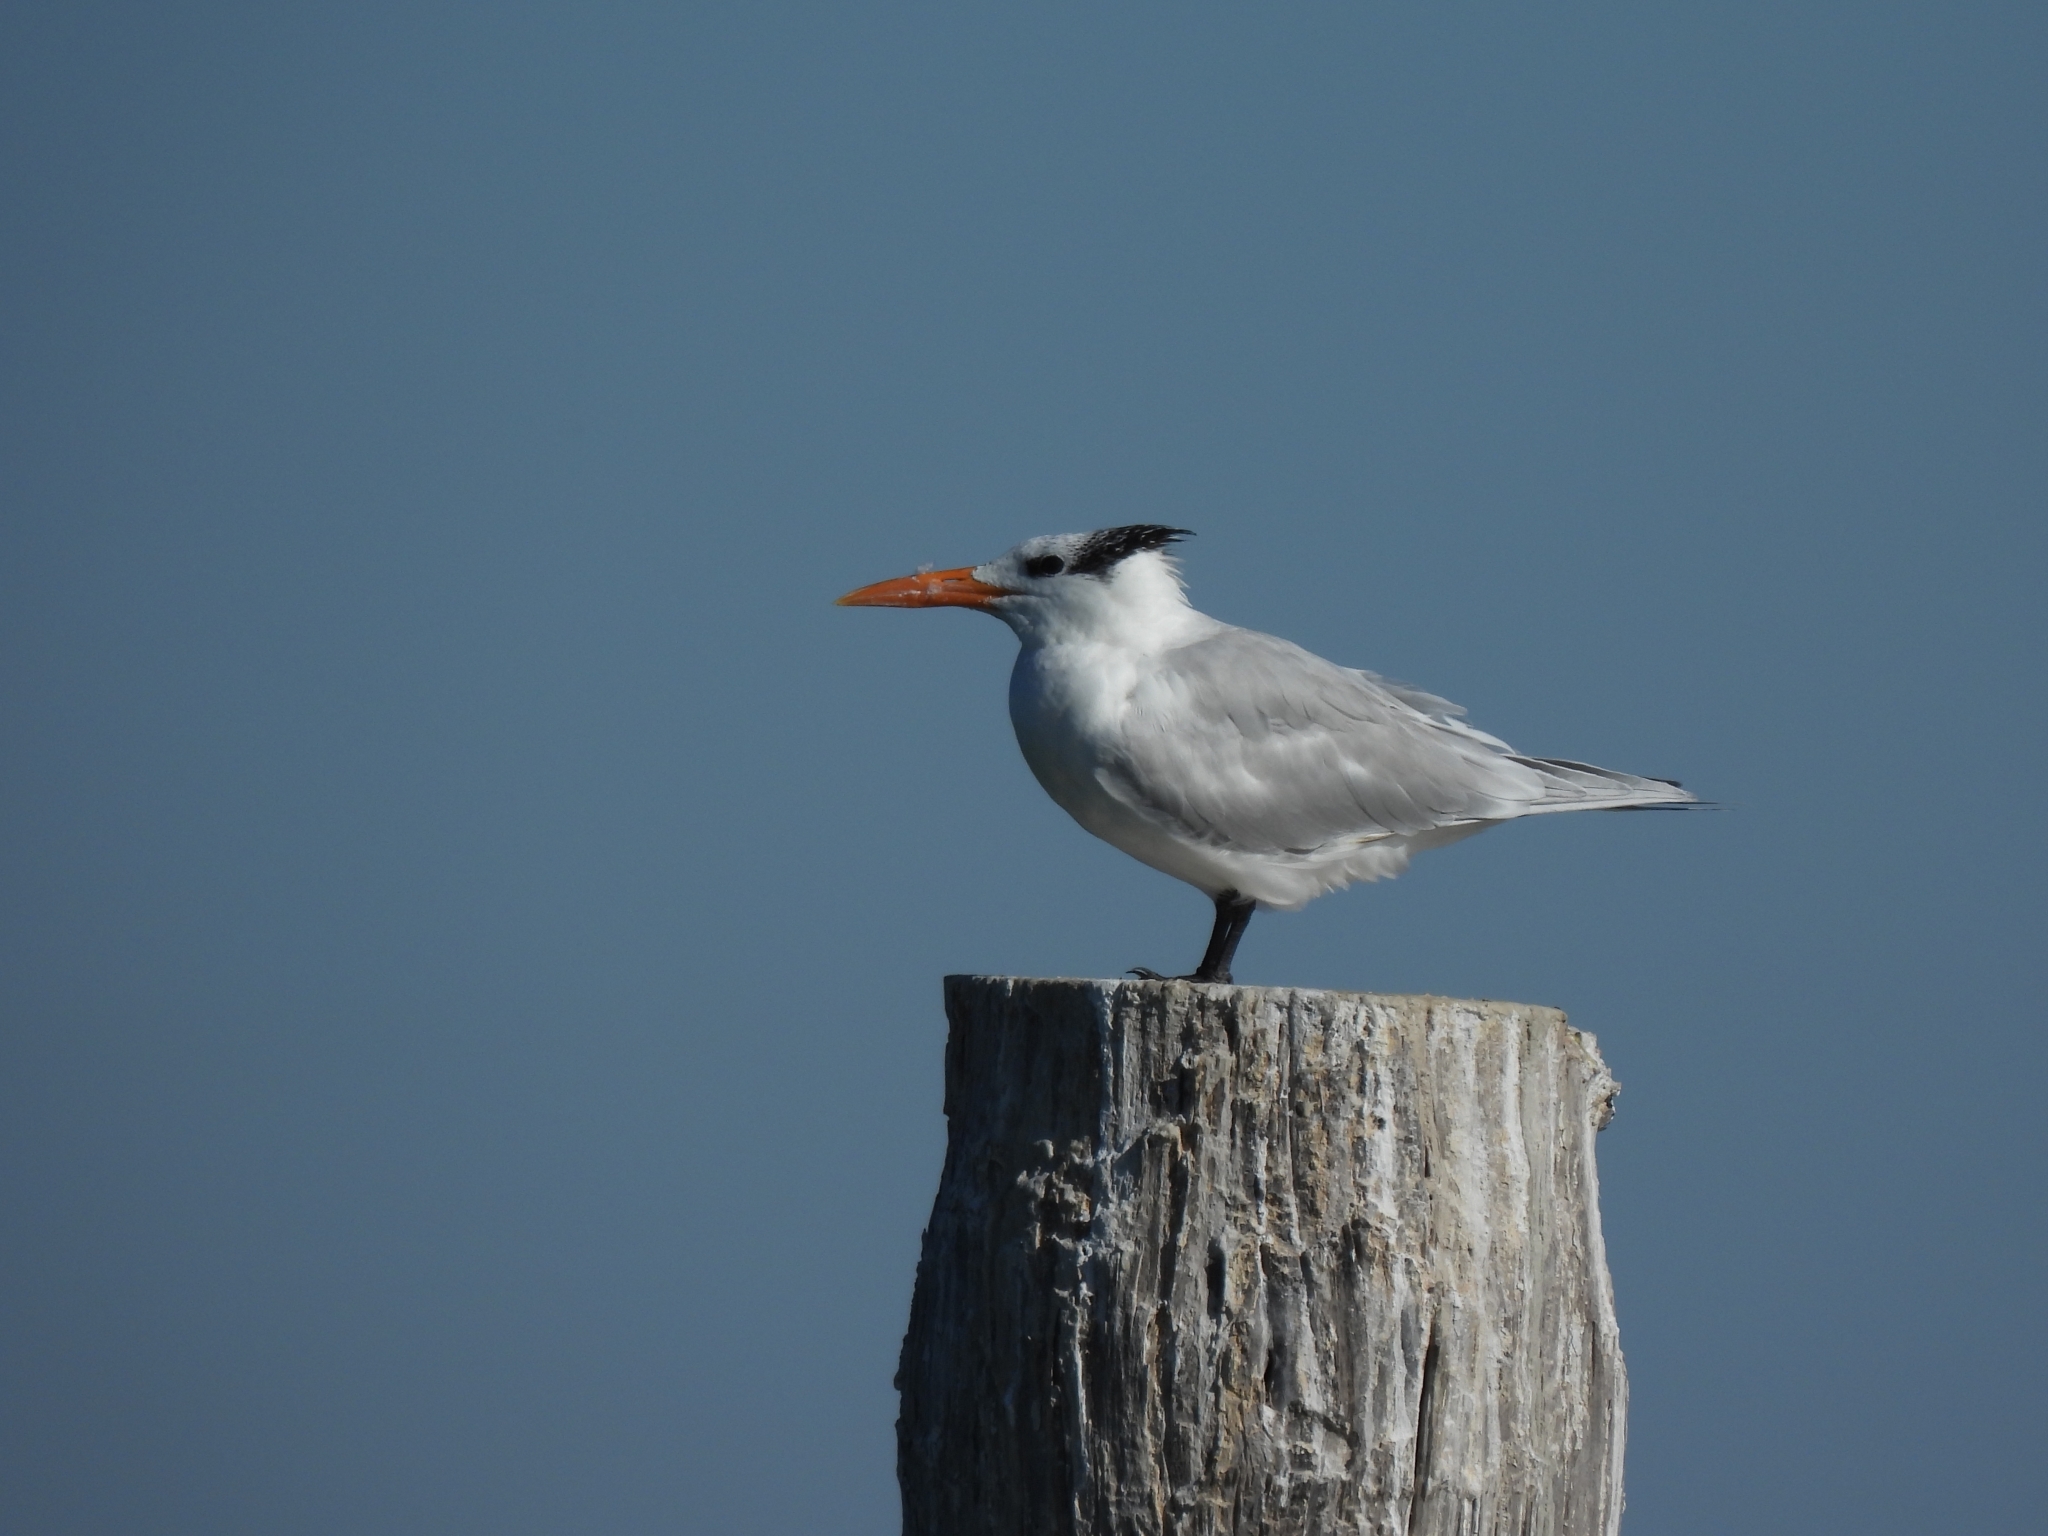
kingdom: Animalia
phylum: Chordata
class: Aves
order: Charadriiformes
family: Laridae
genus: Thalasseus
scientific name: Thalasseus maximus
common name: Royal tern
